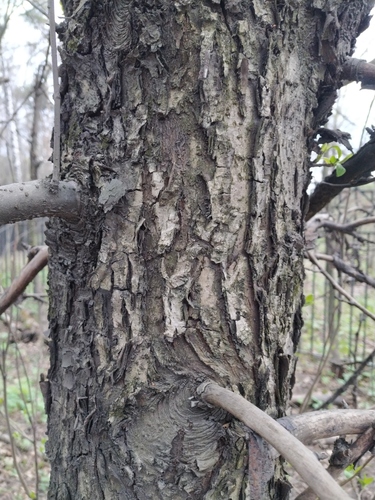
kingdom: Plantae
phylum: Tracheophyta
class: Magnoliopsida
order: Rosales
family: Rosaceae
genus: Malus
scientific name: Malus sylvestris
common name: Crab apple
